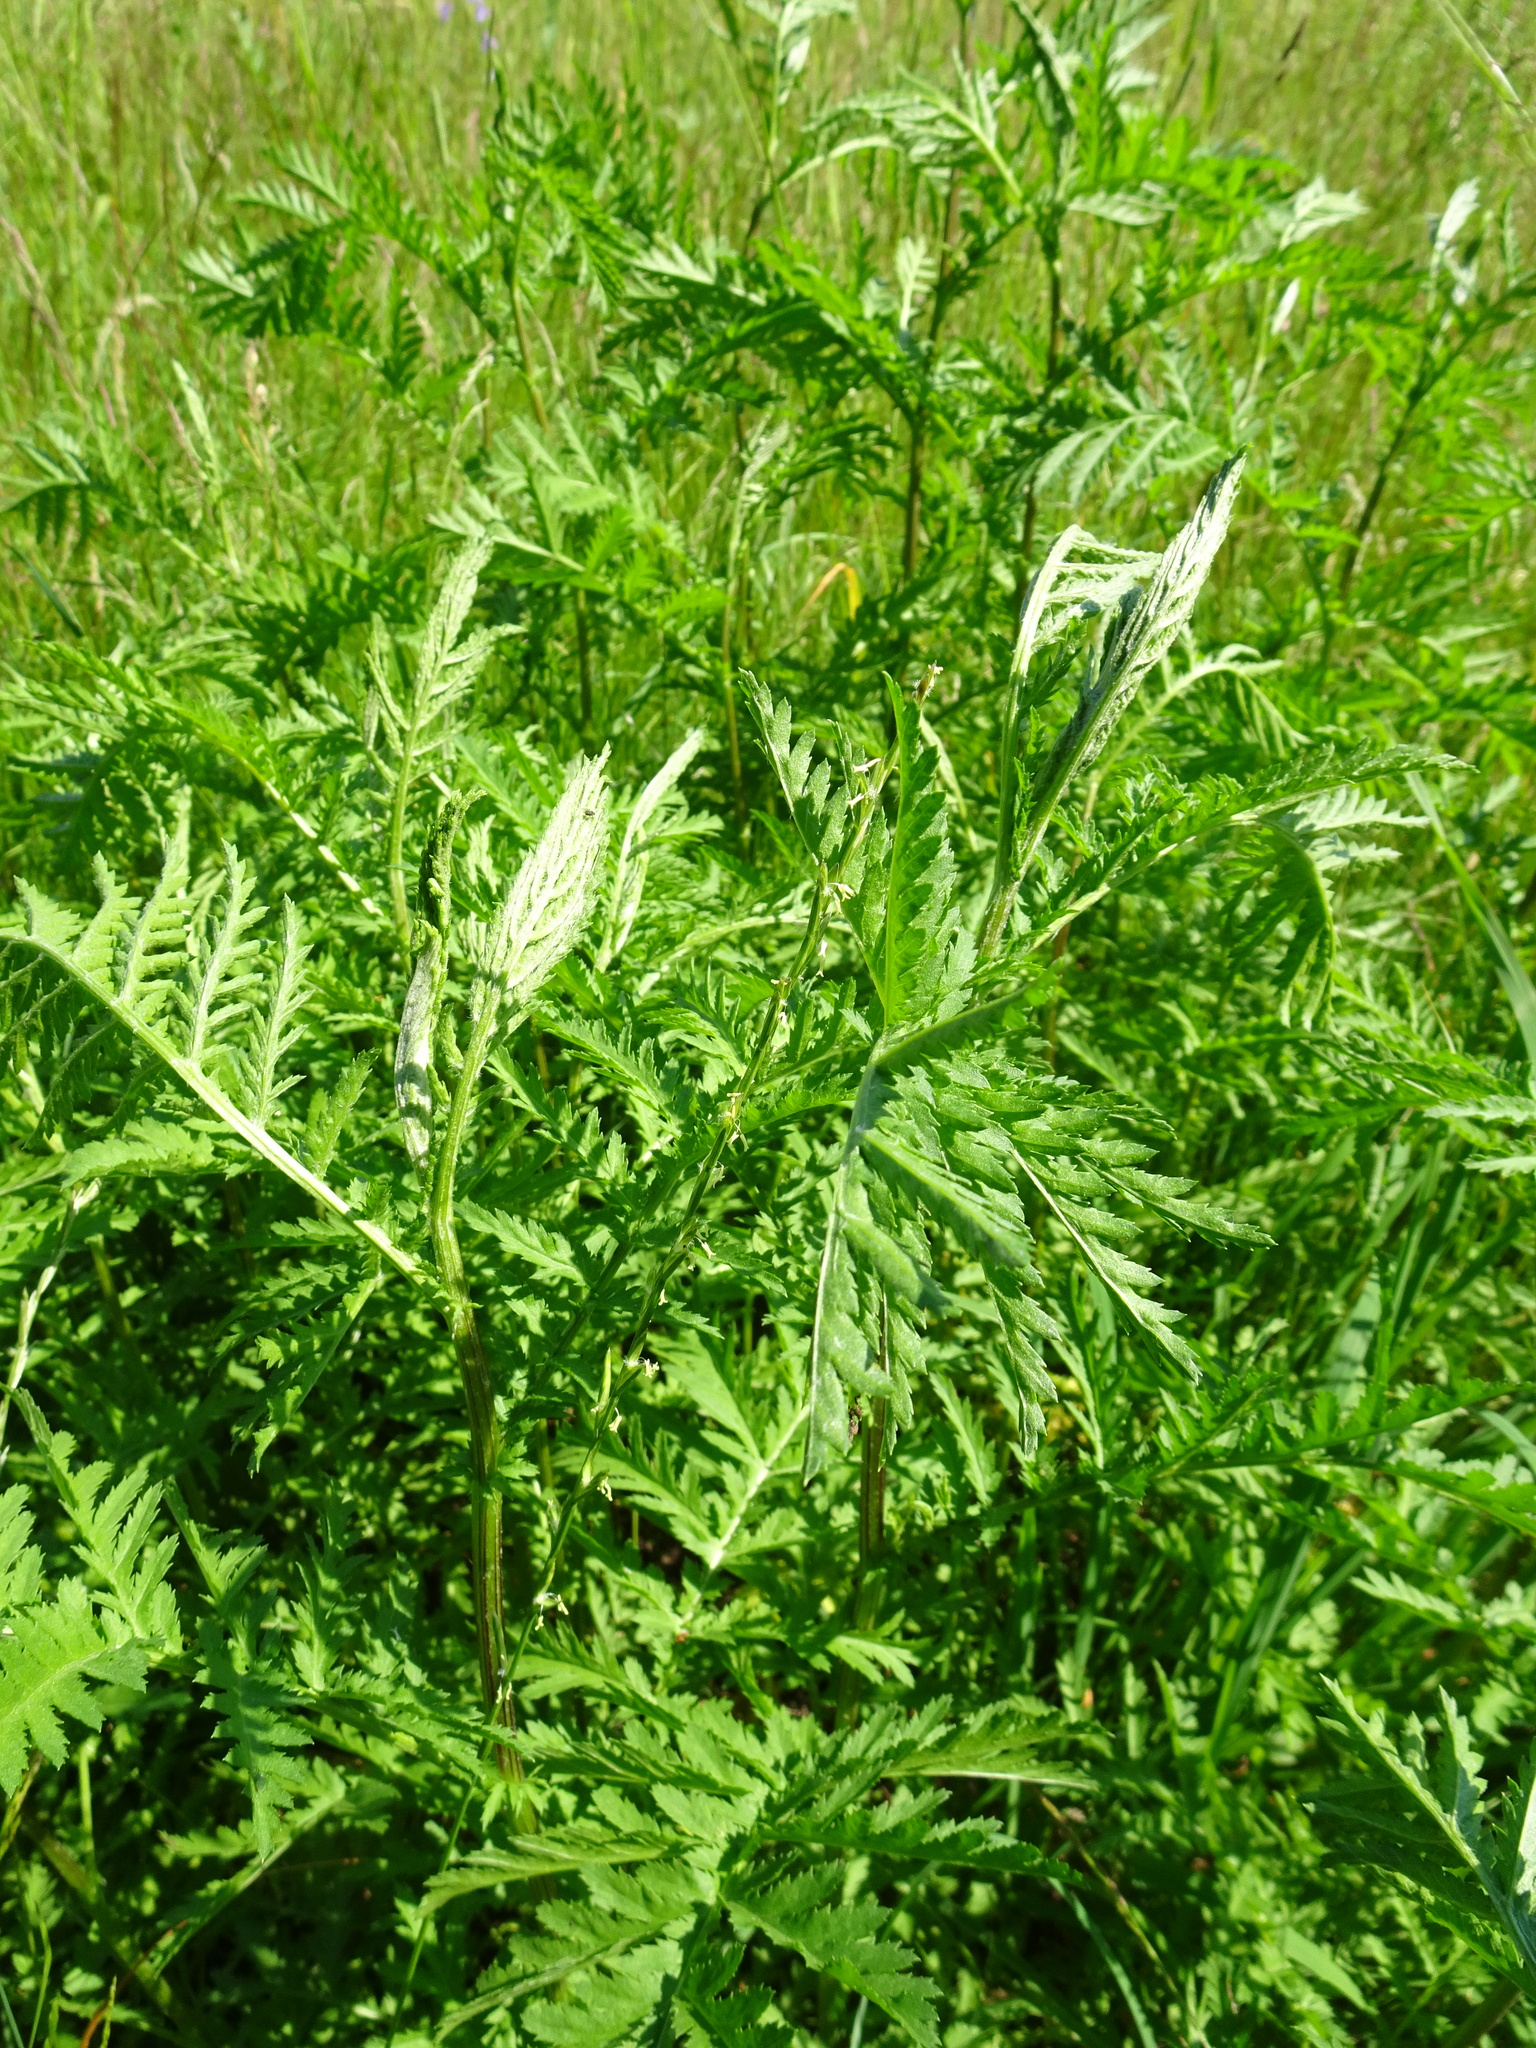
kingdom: Plantae
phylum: Tracheophyta
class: Magnoliopsida
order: Asterales
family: Asteraceae
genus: Tanacetum
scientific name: Tanacetum vulgare
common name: Common tansy
